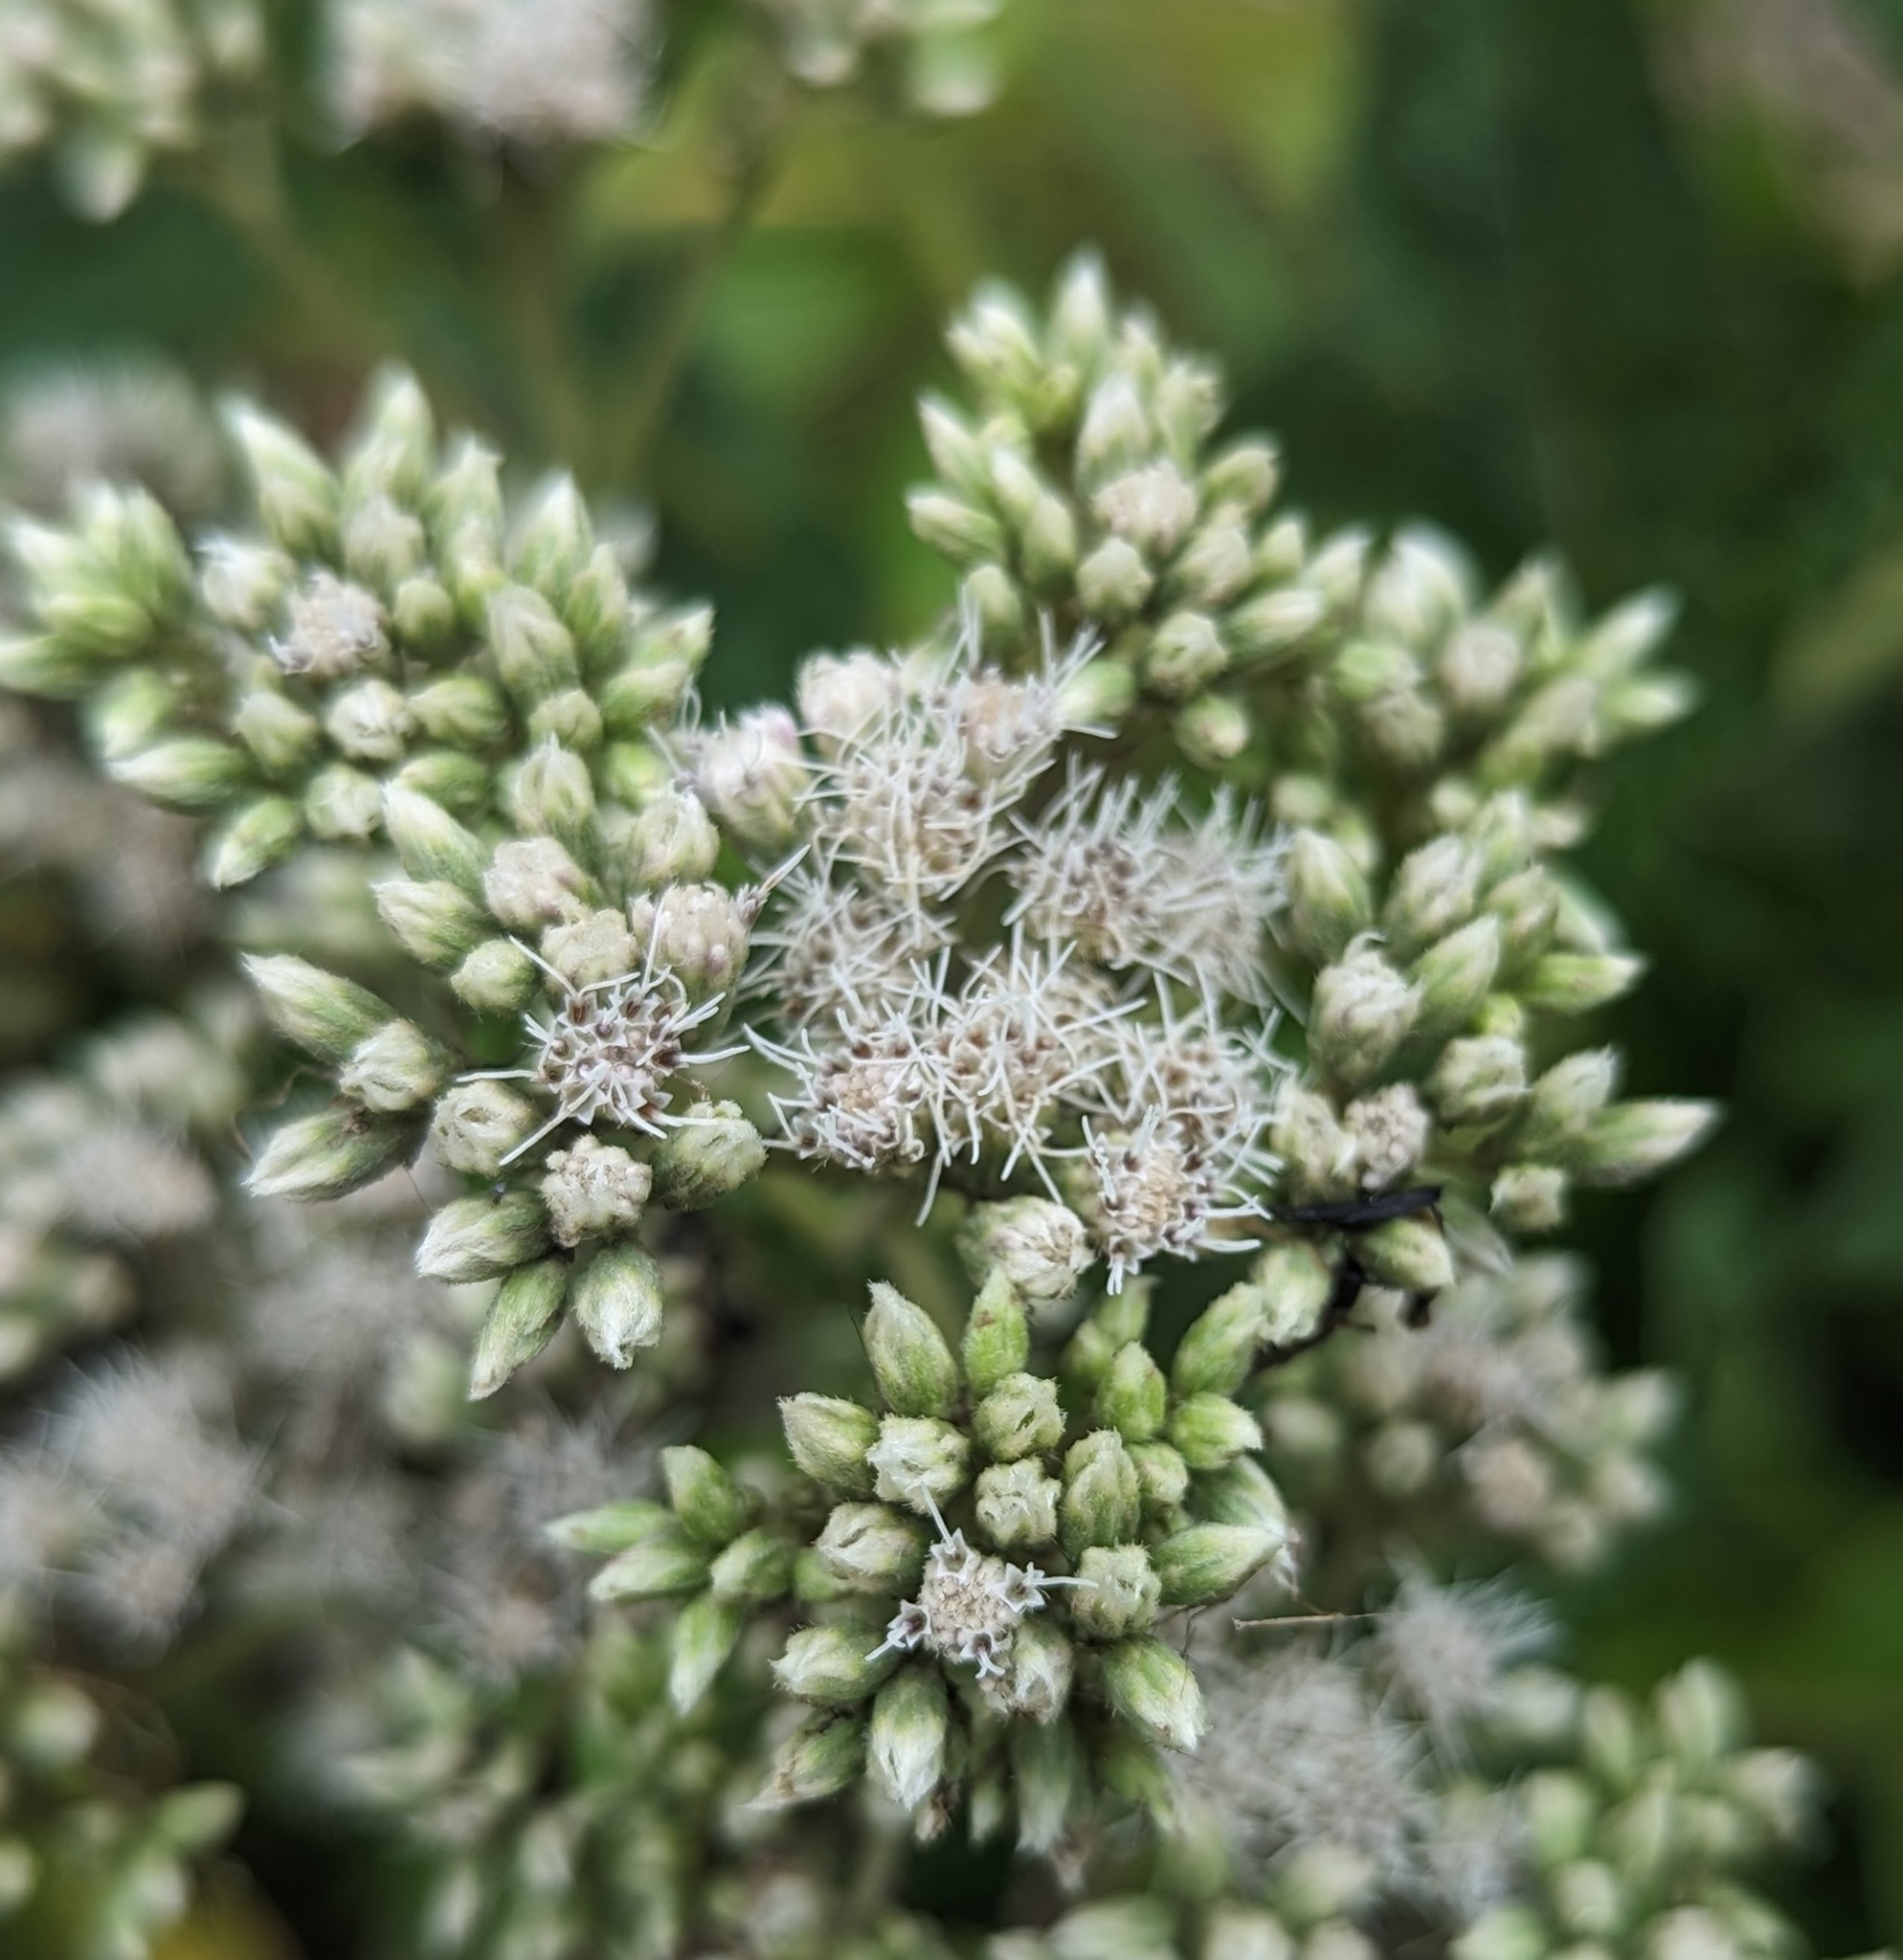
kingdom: Plantae
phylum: Tracheophyta
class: Magnoliopsida
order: Asterales
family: Asteraceae
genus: Eupatorium
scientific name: Eupatorium perfoliatum
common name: Boneset
